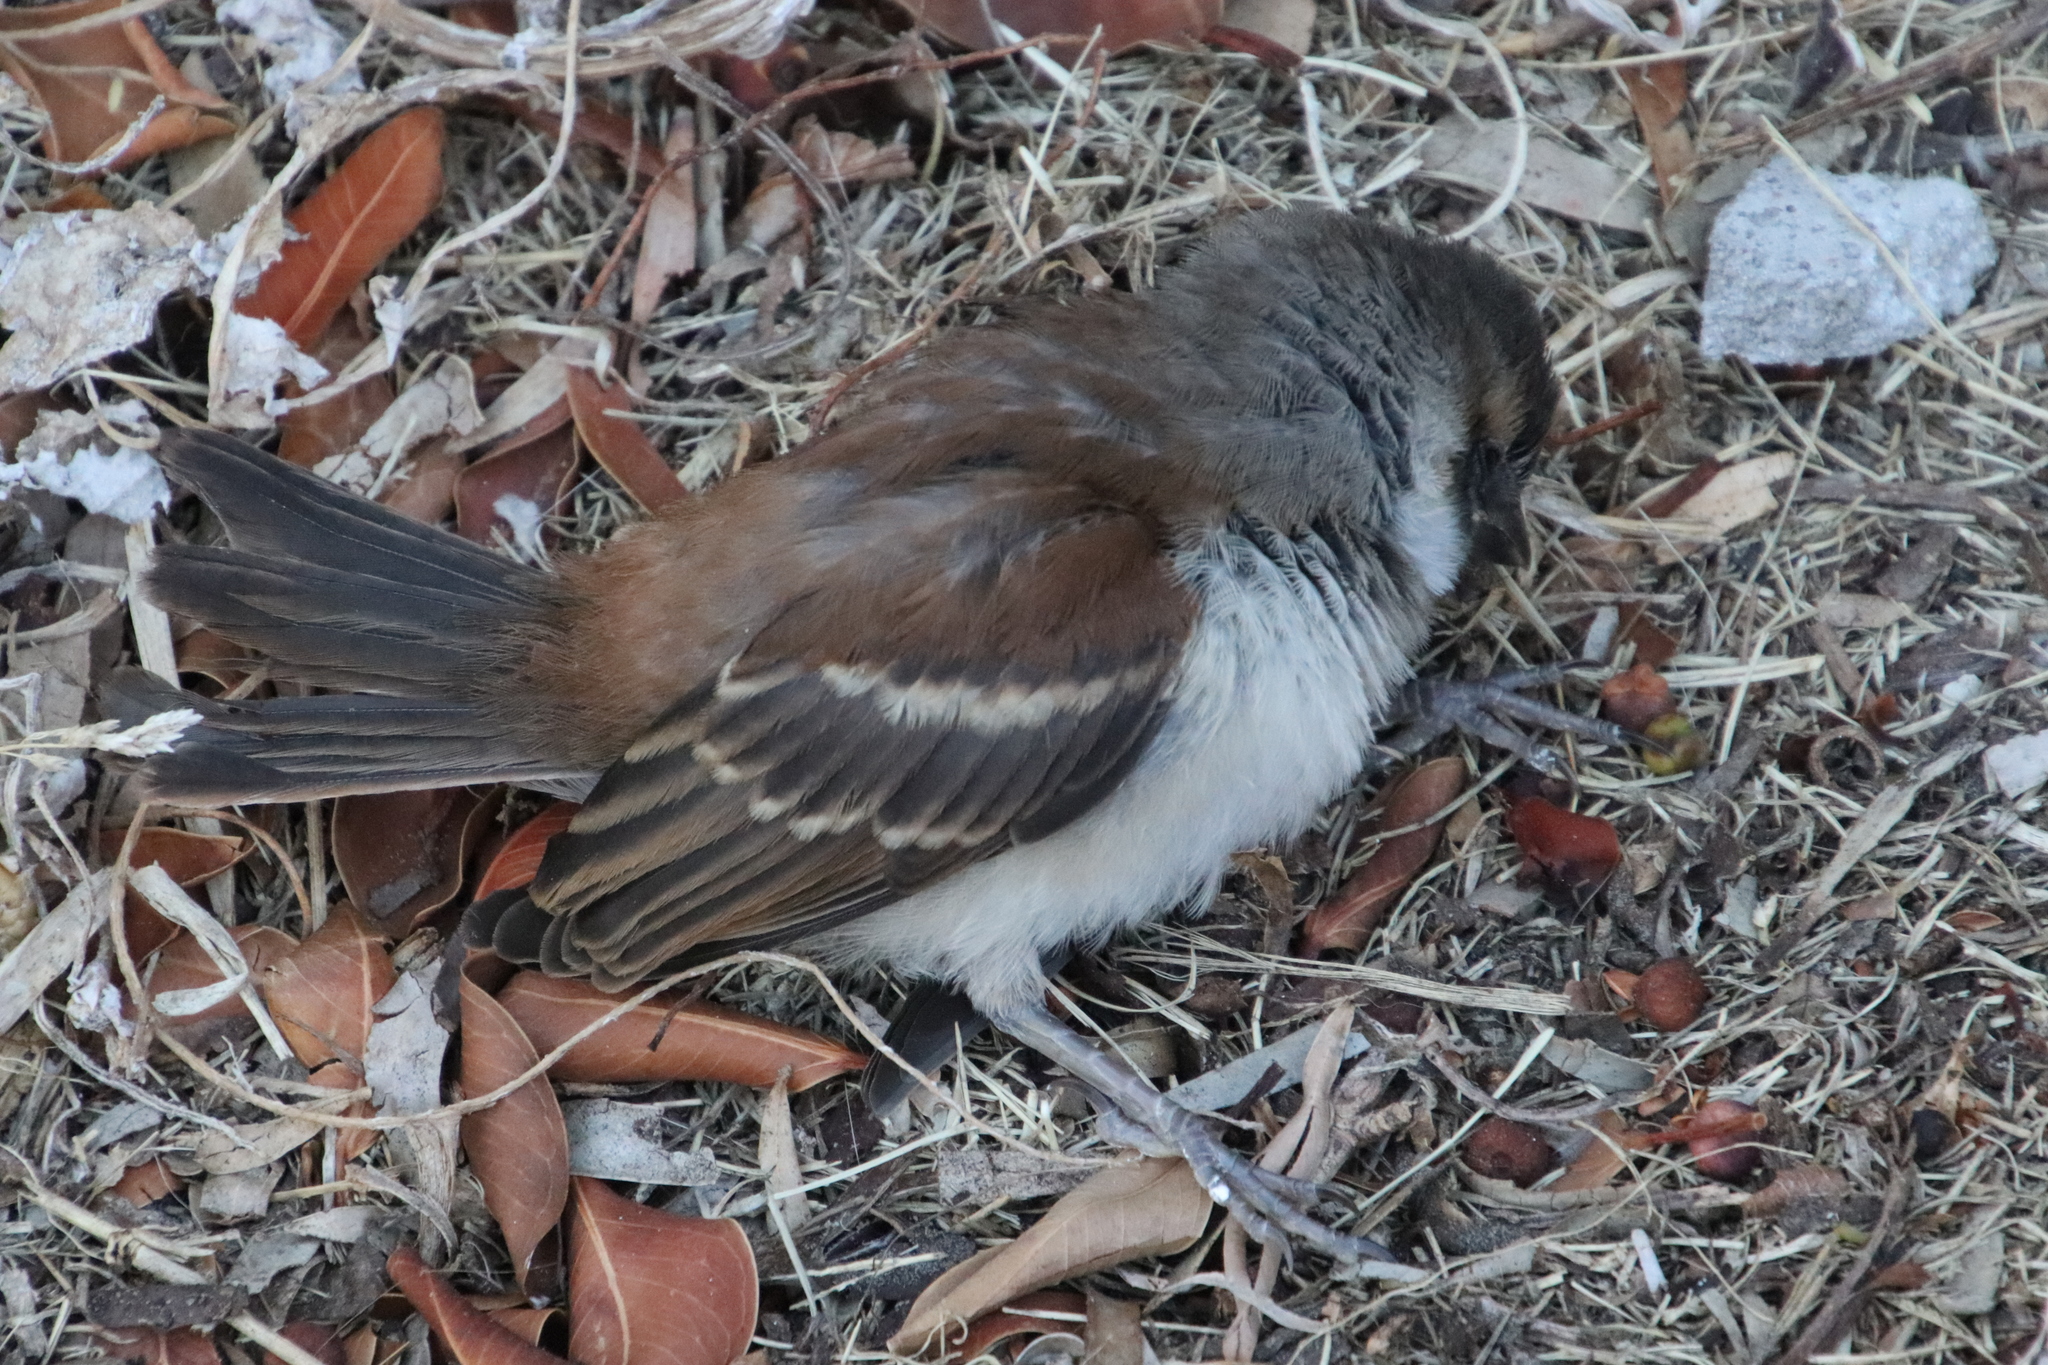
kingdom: Animalia
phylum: Chordata
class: Aves
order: Passeriformes
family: Passeridae
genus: Passer
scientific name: Passer melanurus
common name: Cape sparrow
